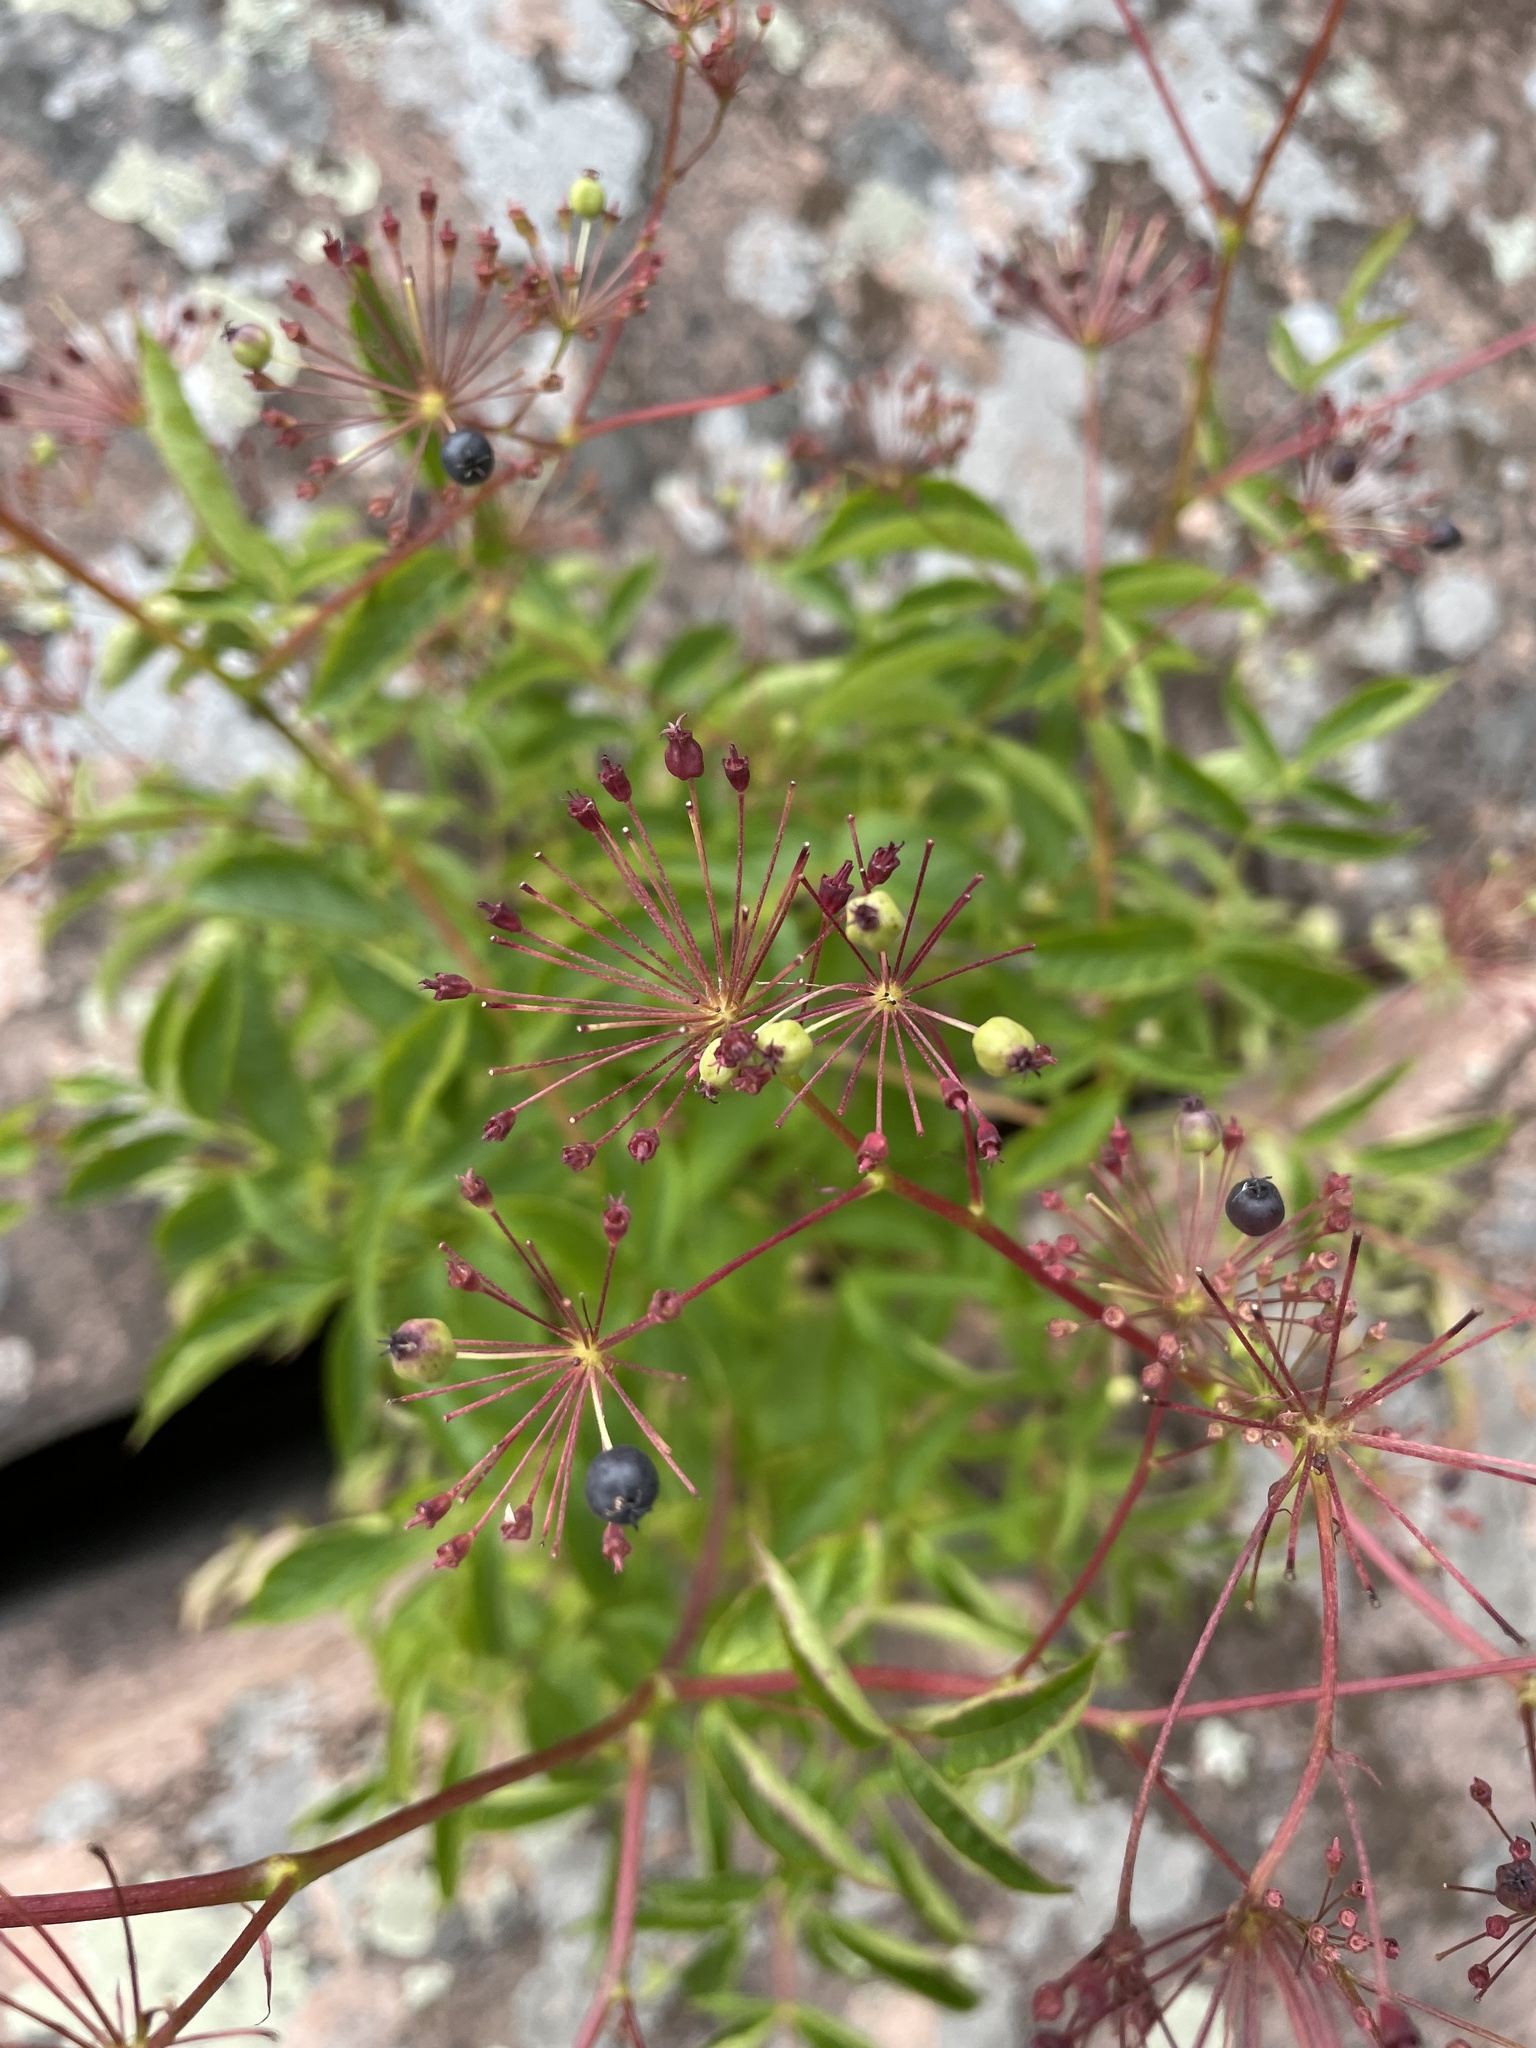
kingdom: Plantae
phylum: Tracheophyta
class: Magnoliopsida
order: Apiales
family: Araliaceae
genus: Aralia
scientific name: Aralia hispida
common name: Bristly sarsaparilla
